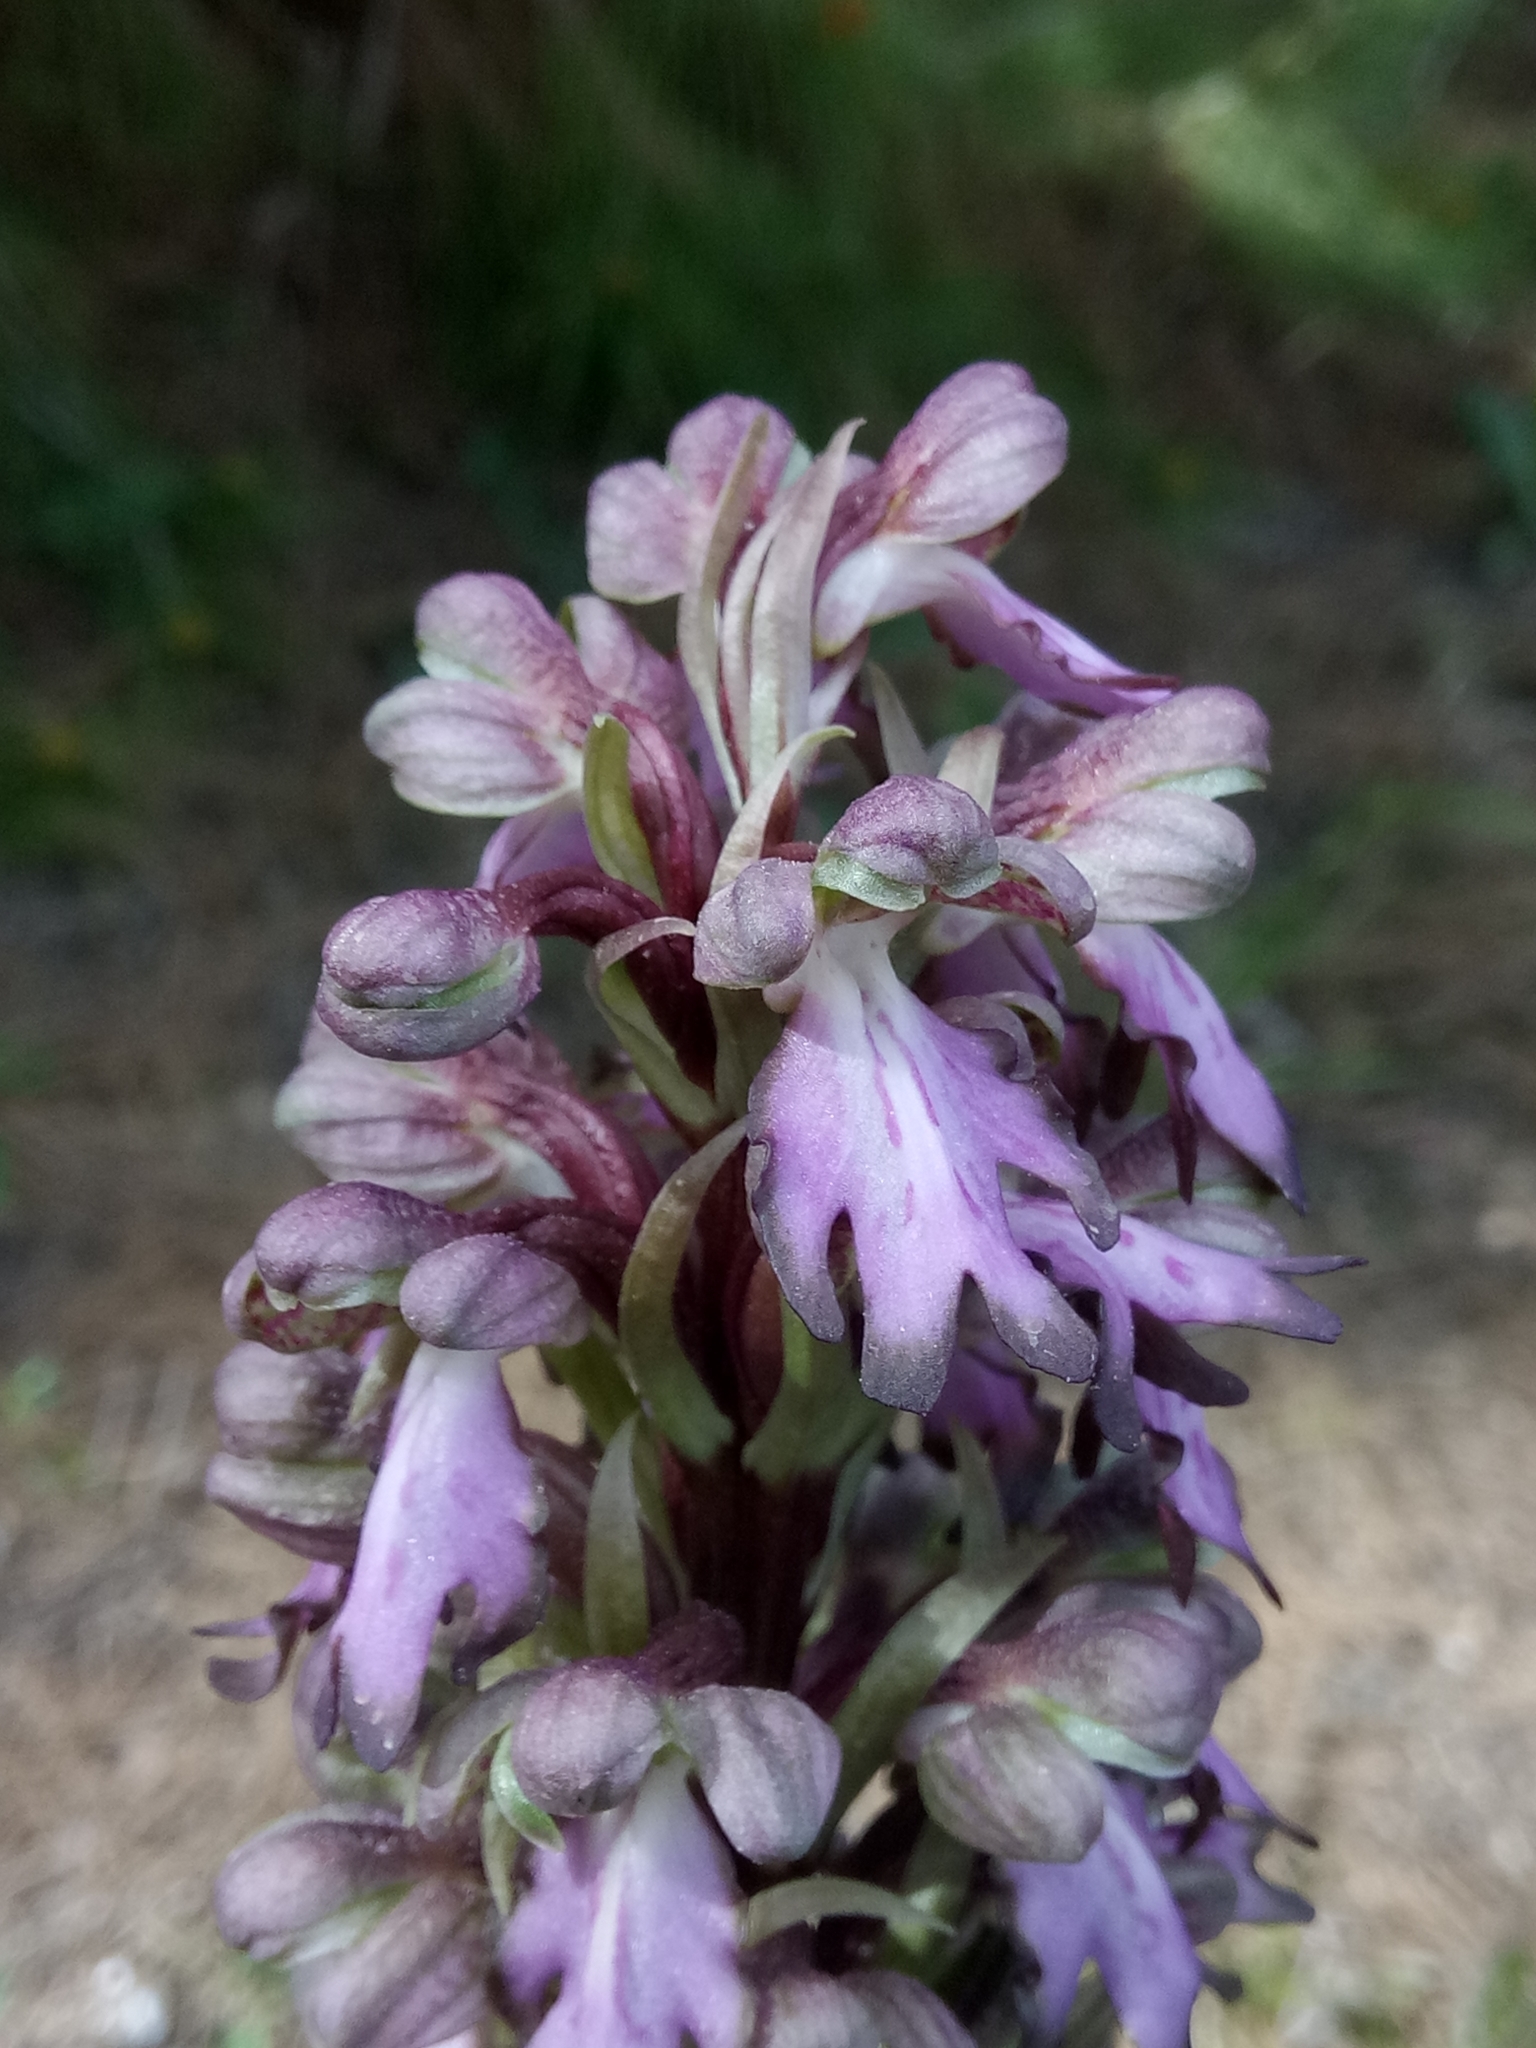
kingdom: Plantae
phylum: Tracheophyta
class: Liliopsida
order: Asparagales
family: Orchidaceae
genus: Himantoglossum
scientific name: Himantoglossum robertianum
